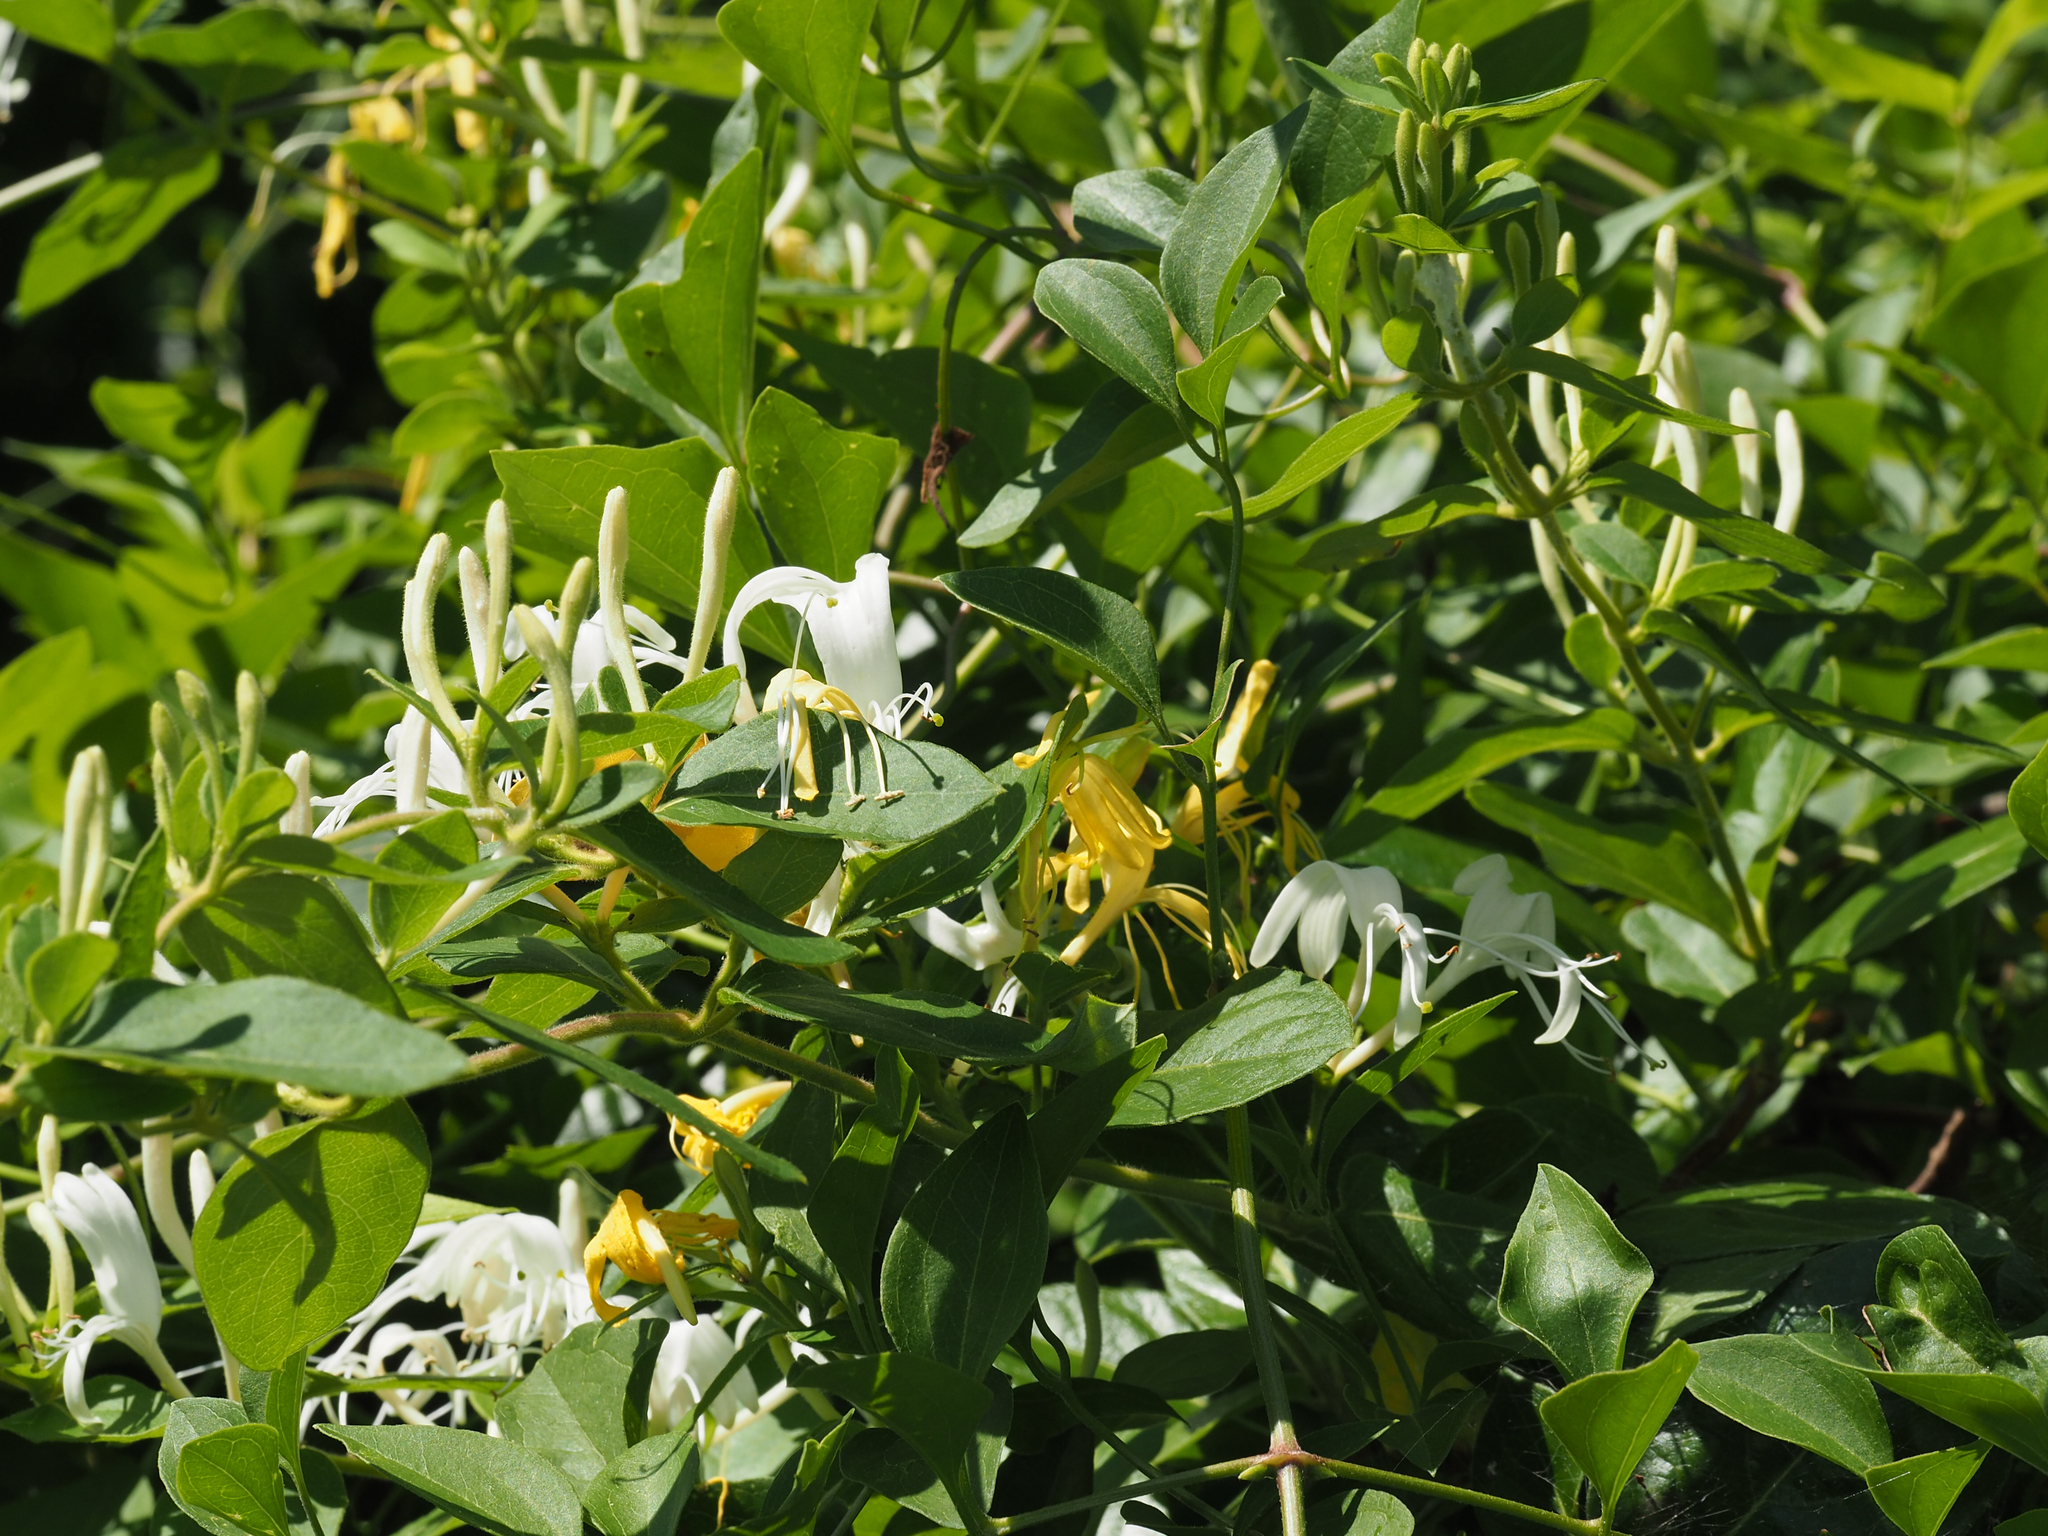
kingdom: Plantae
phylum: Tracheophyta
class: Magnoliopsida
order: Dipsacales
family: Caprifoliaceae
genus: Lonicera
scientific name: Lonicera japonica
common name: Japanese honeysuckle
